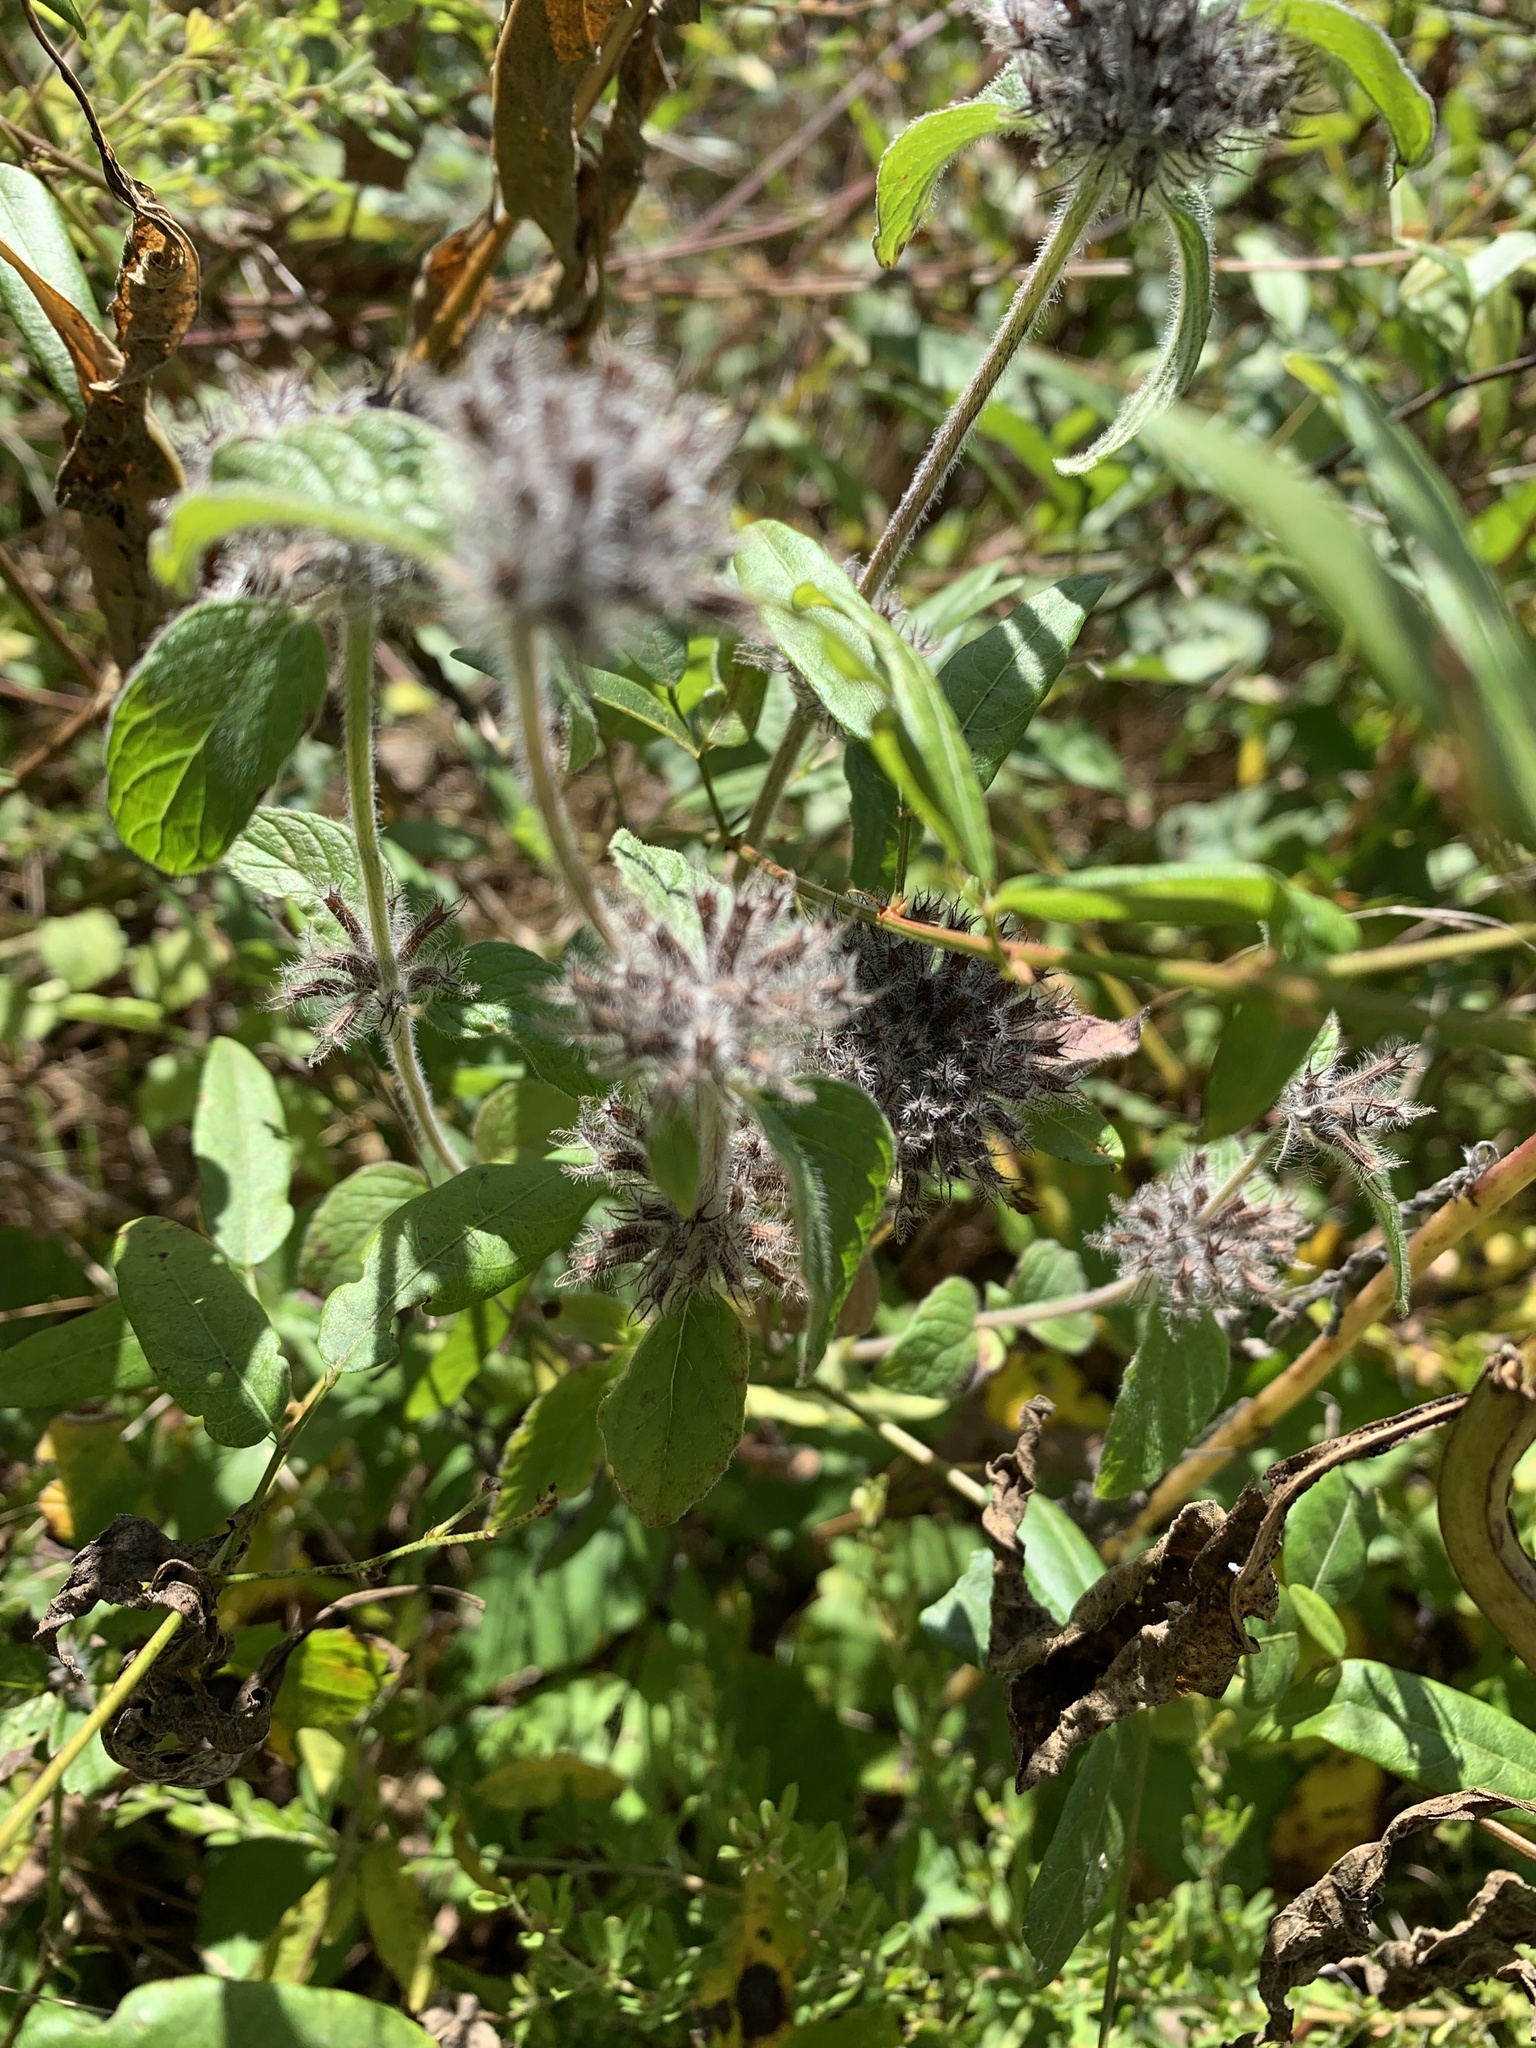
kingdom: Plantae
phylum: Tracheophyta
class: Magnoliopsida
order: Lamiales
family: Lamiaceae
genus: Clinopodium
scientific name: Clinopodium vulgare
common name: Wild basil
